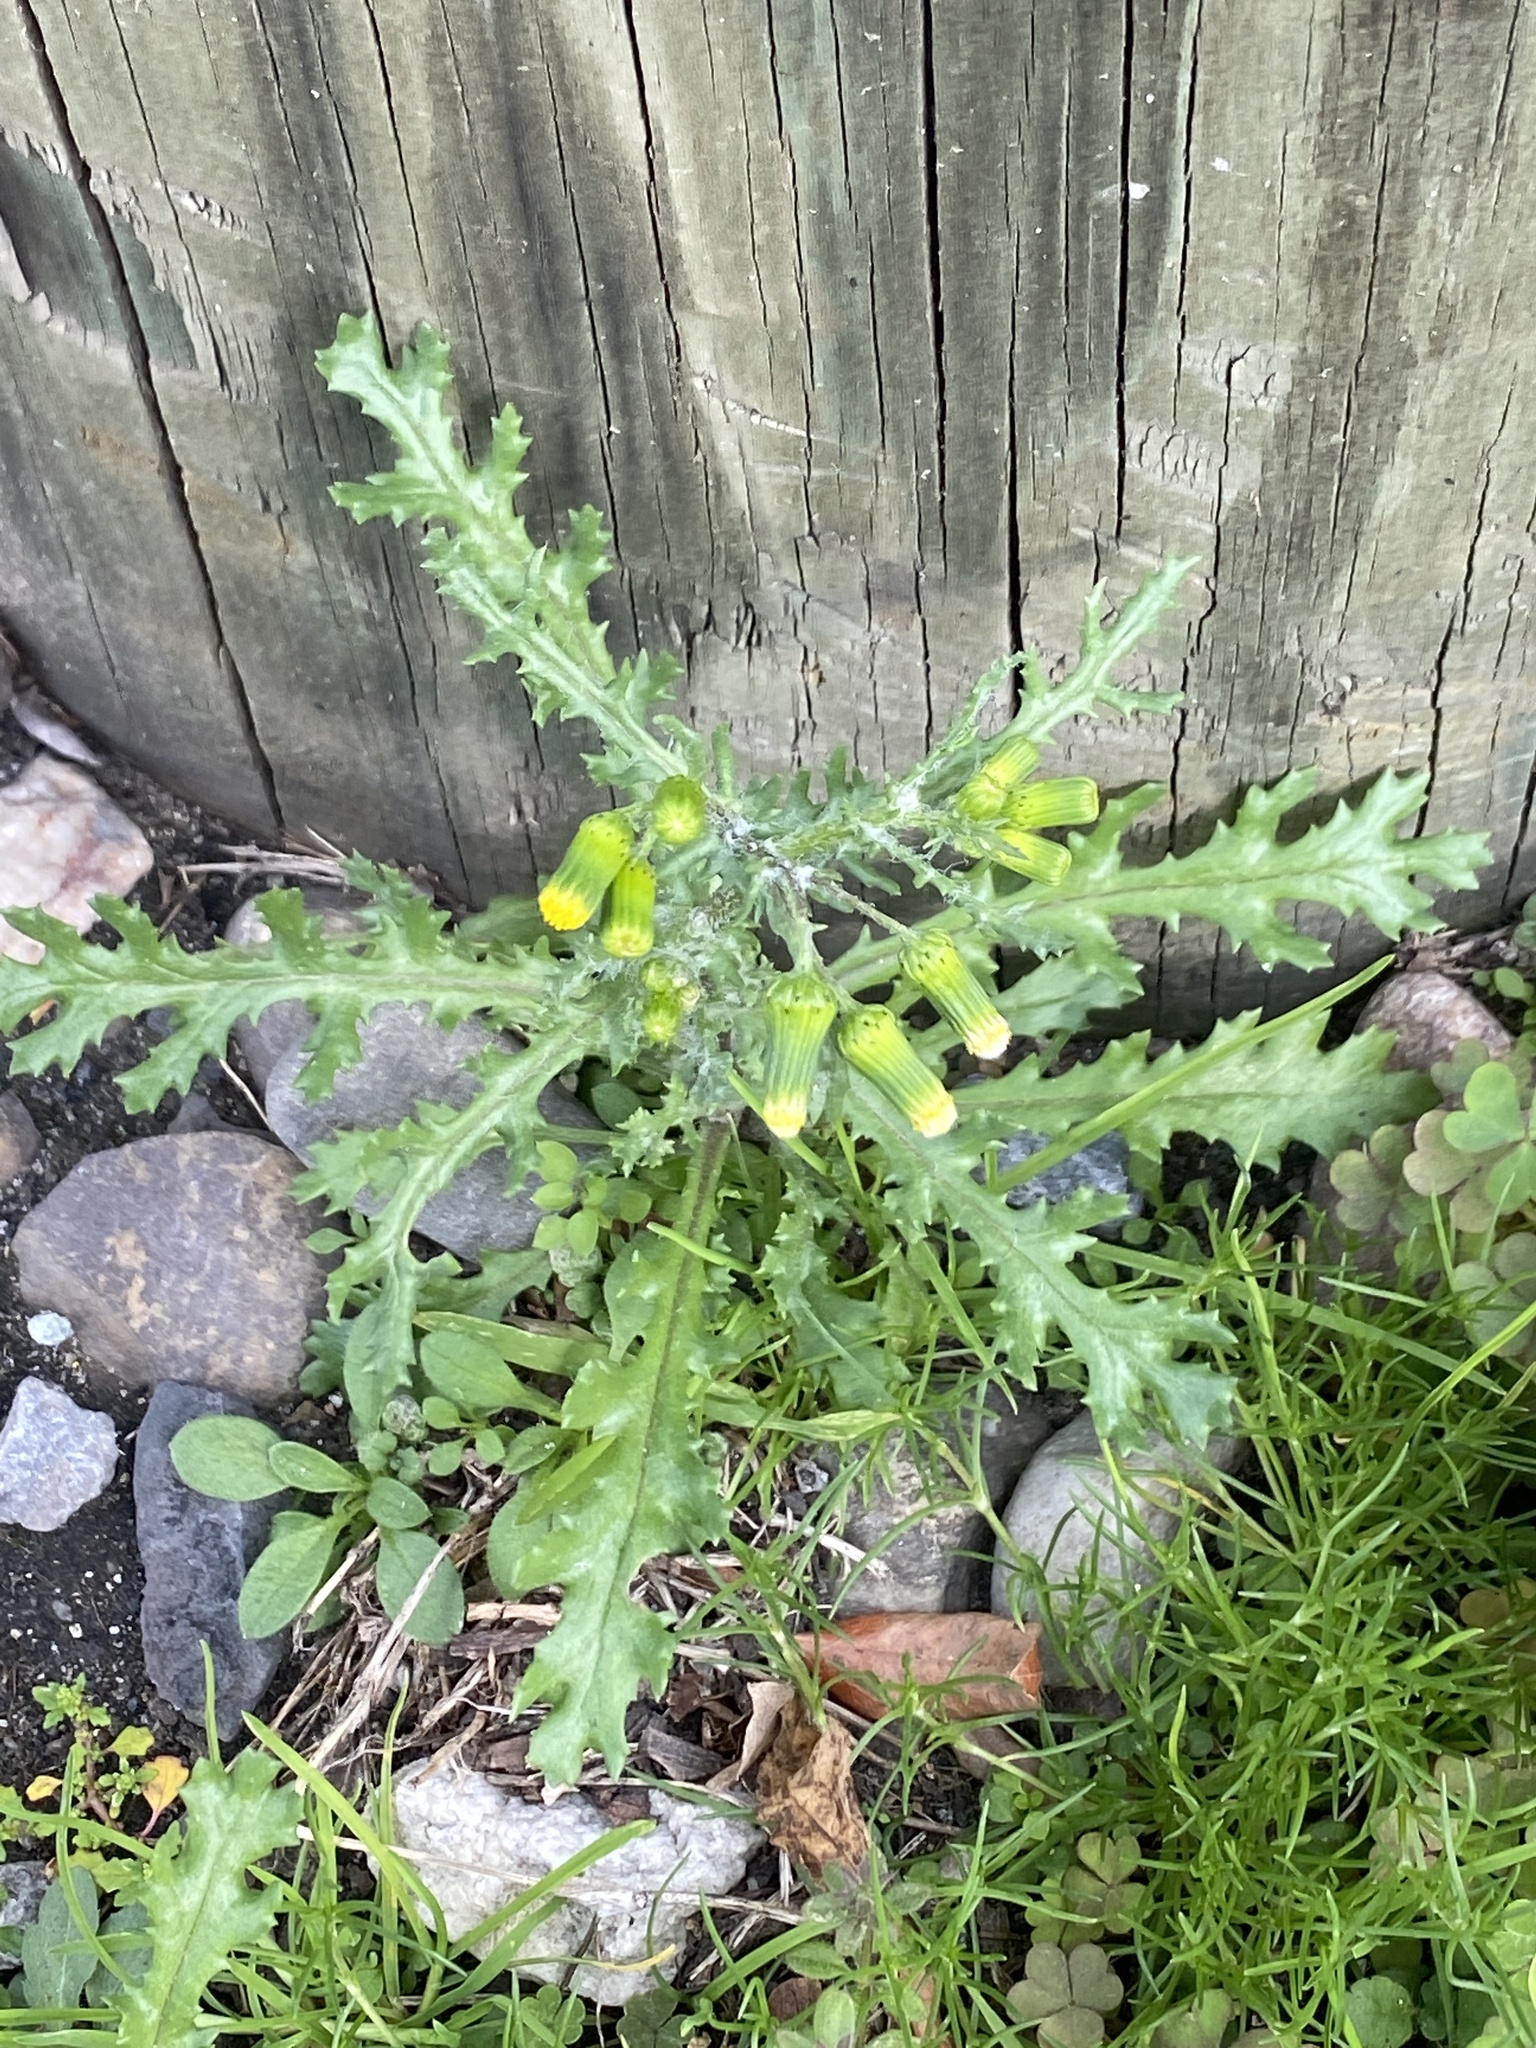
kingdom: Plantae
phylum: Tracheophyta
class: Magnoliopsida
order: Asterales
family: Asteraceae
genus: Senecio
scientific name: Senecio vulgaris
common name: Old-man-in-the-spring
